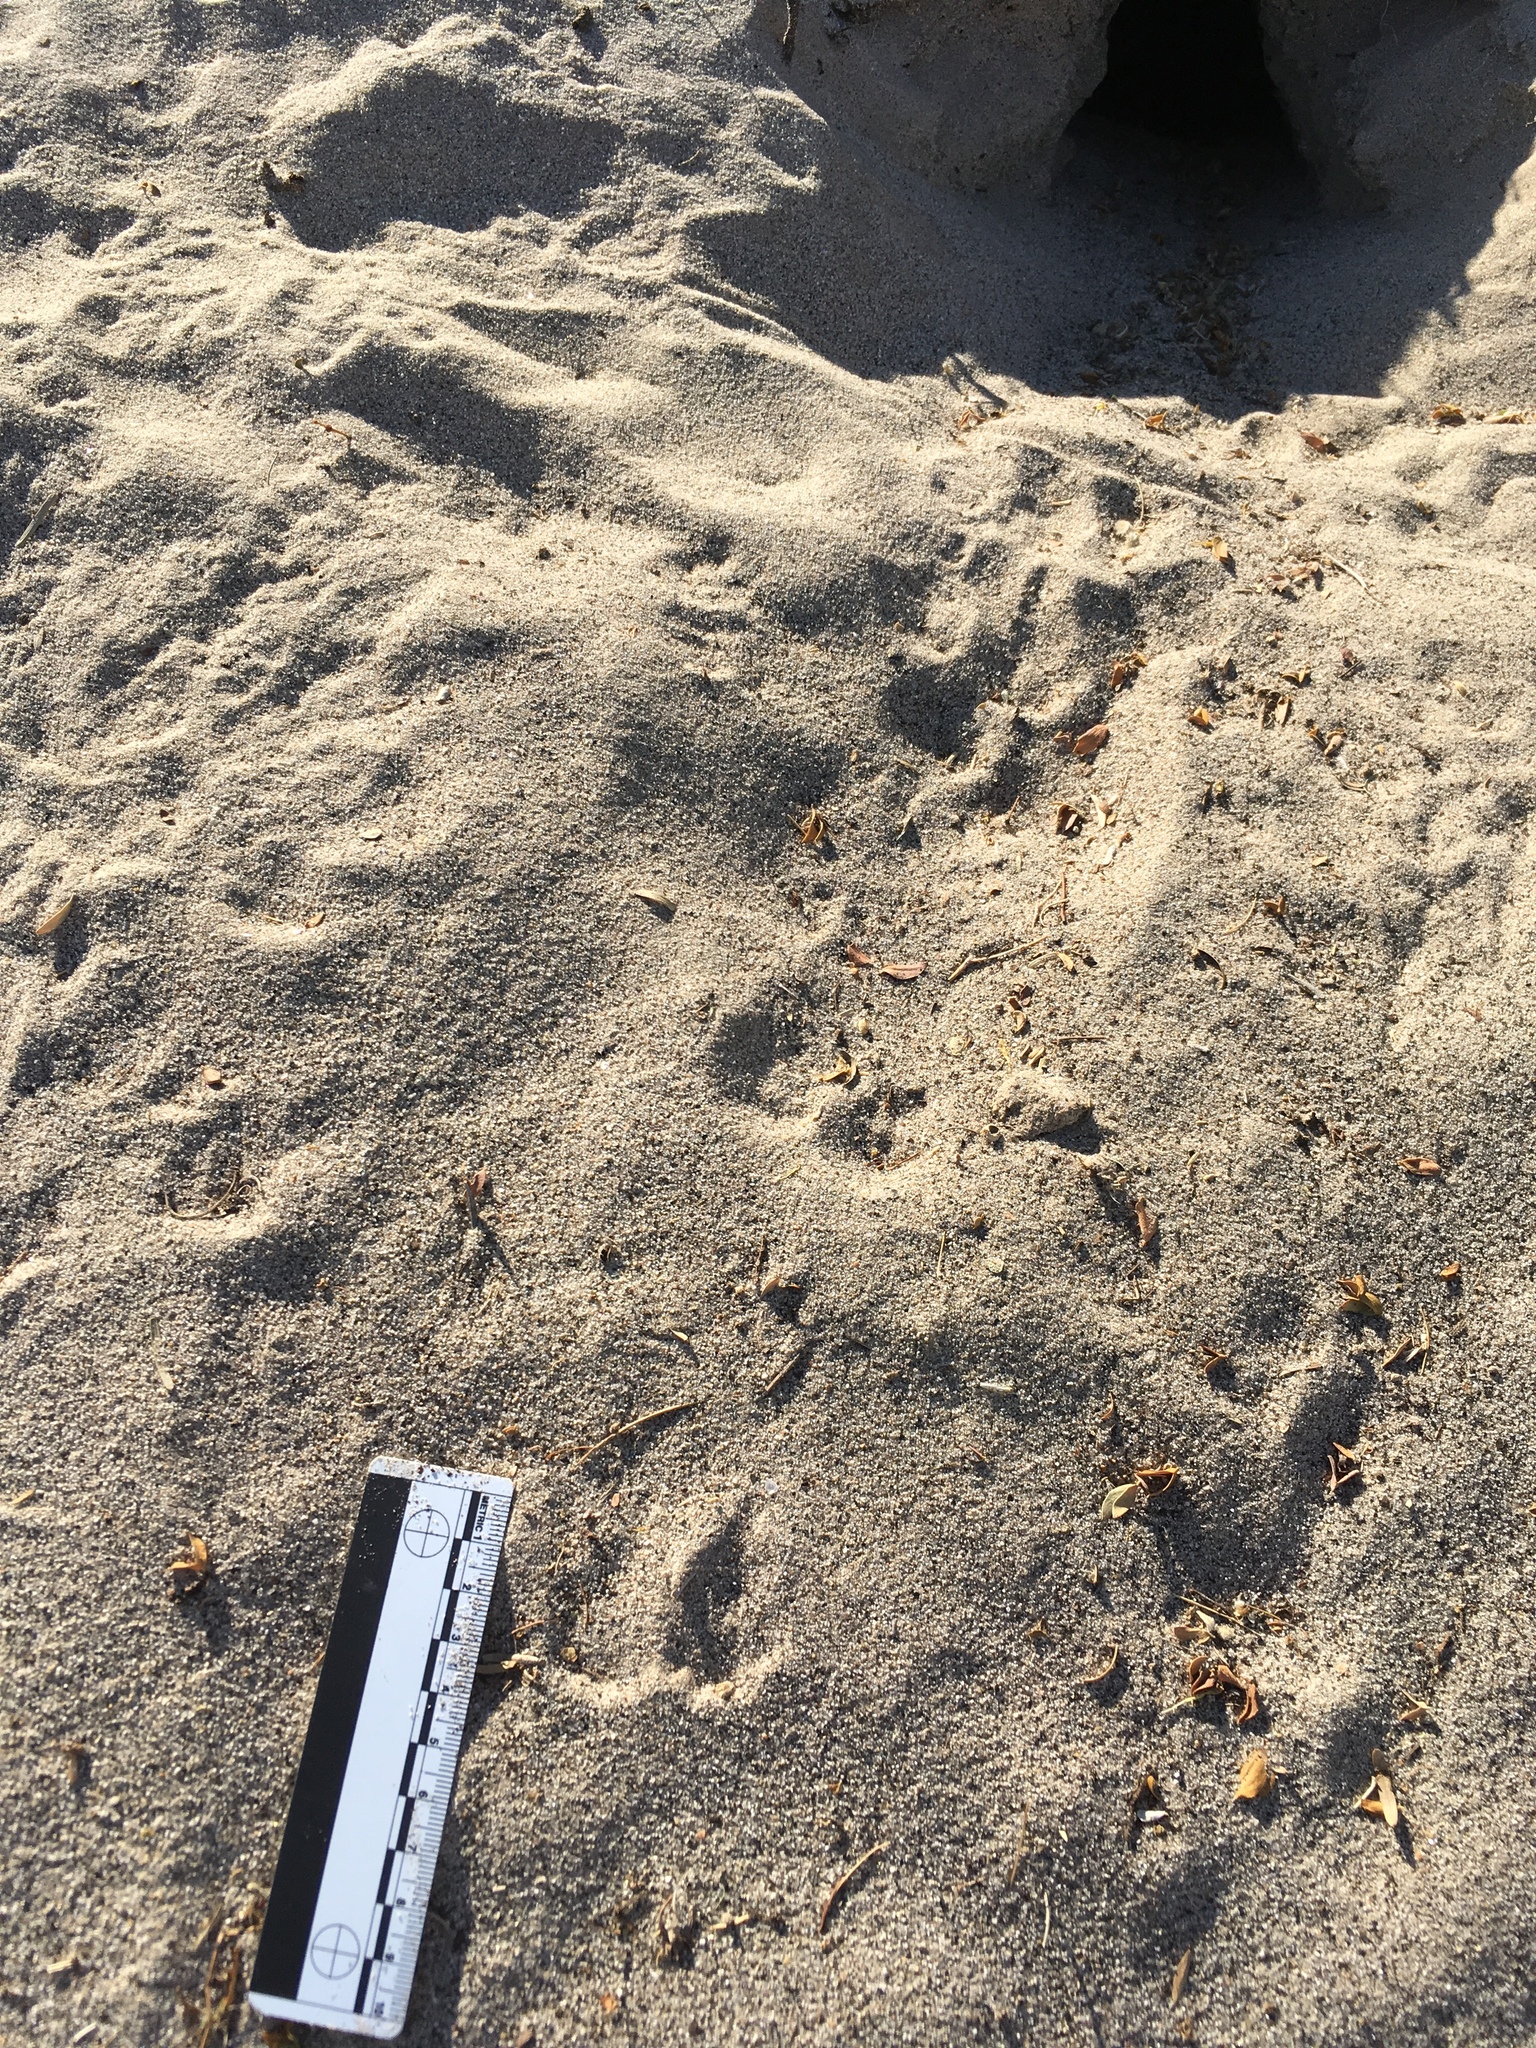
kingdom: Animalia
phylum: Chordata
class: Mammalia
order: Rodentia
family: Heteromyidae
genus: Dipodomys
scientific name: Dipodomys deserti
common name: Desert kangaroo rat
